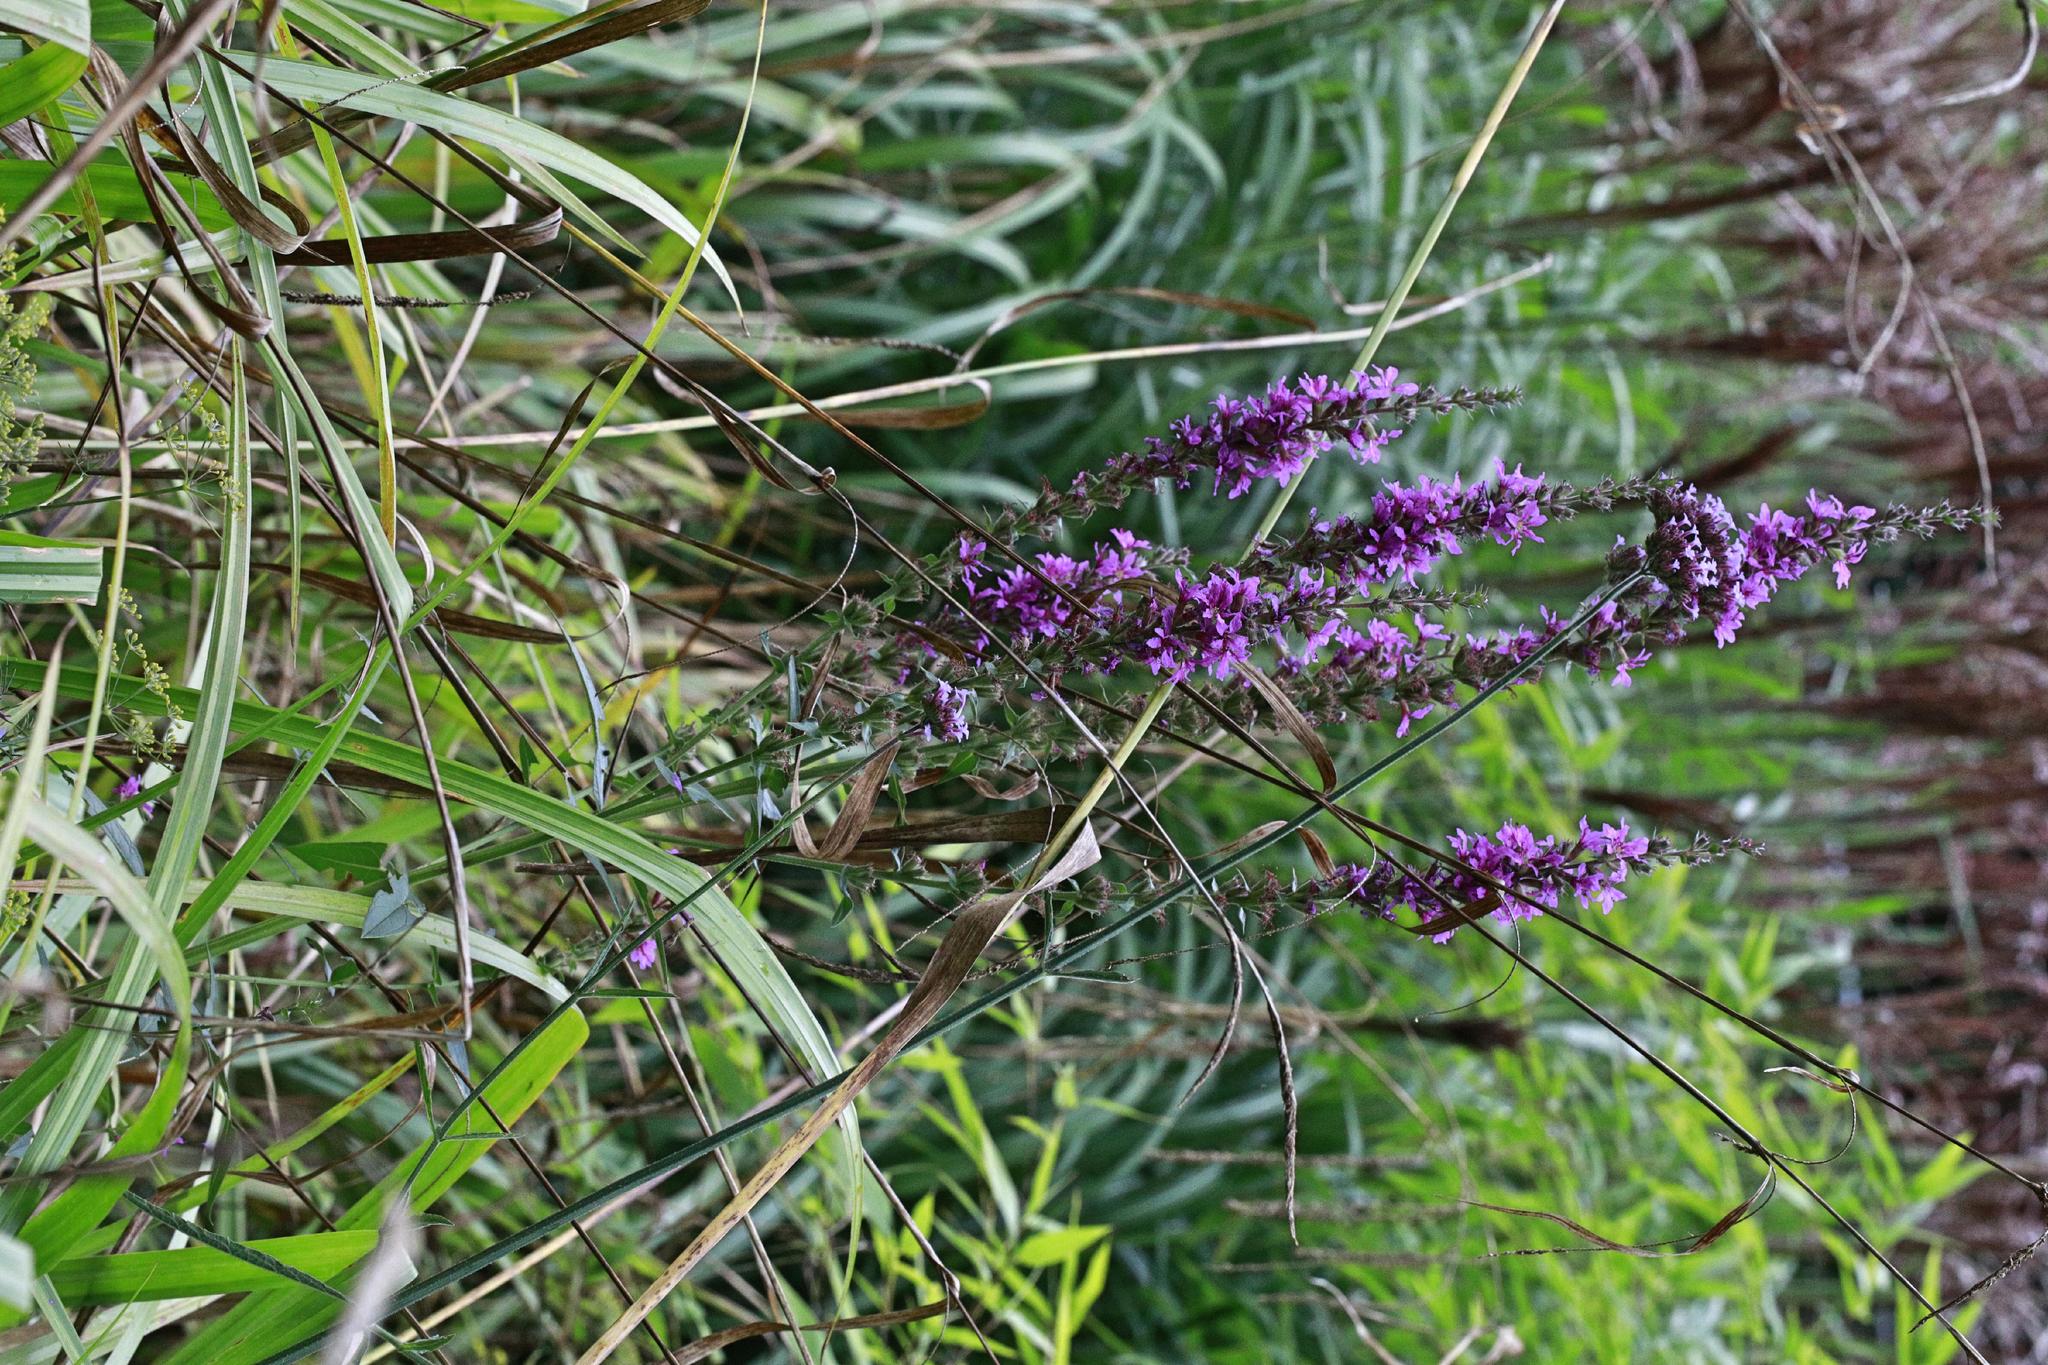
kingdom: Plantae
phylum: Tracheophyta
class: Magnoliopsida
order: Myrtales
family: Lythraceae
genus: Lythrum
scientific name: Lythrum salicaria
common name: Purple loosestrife
